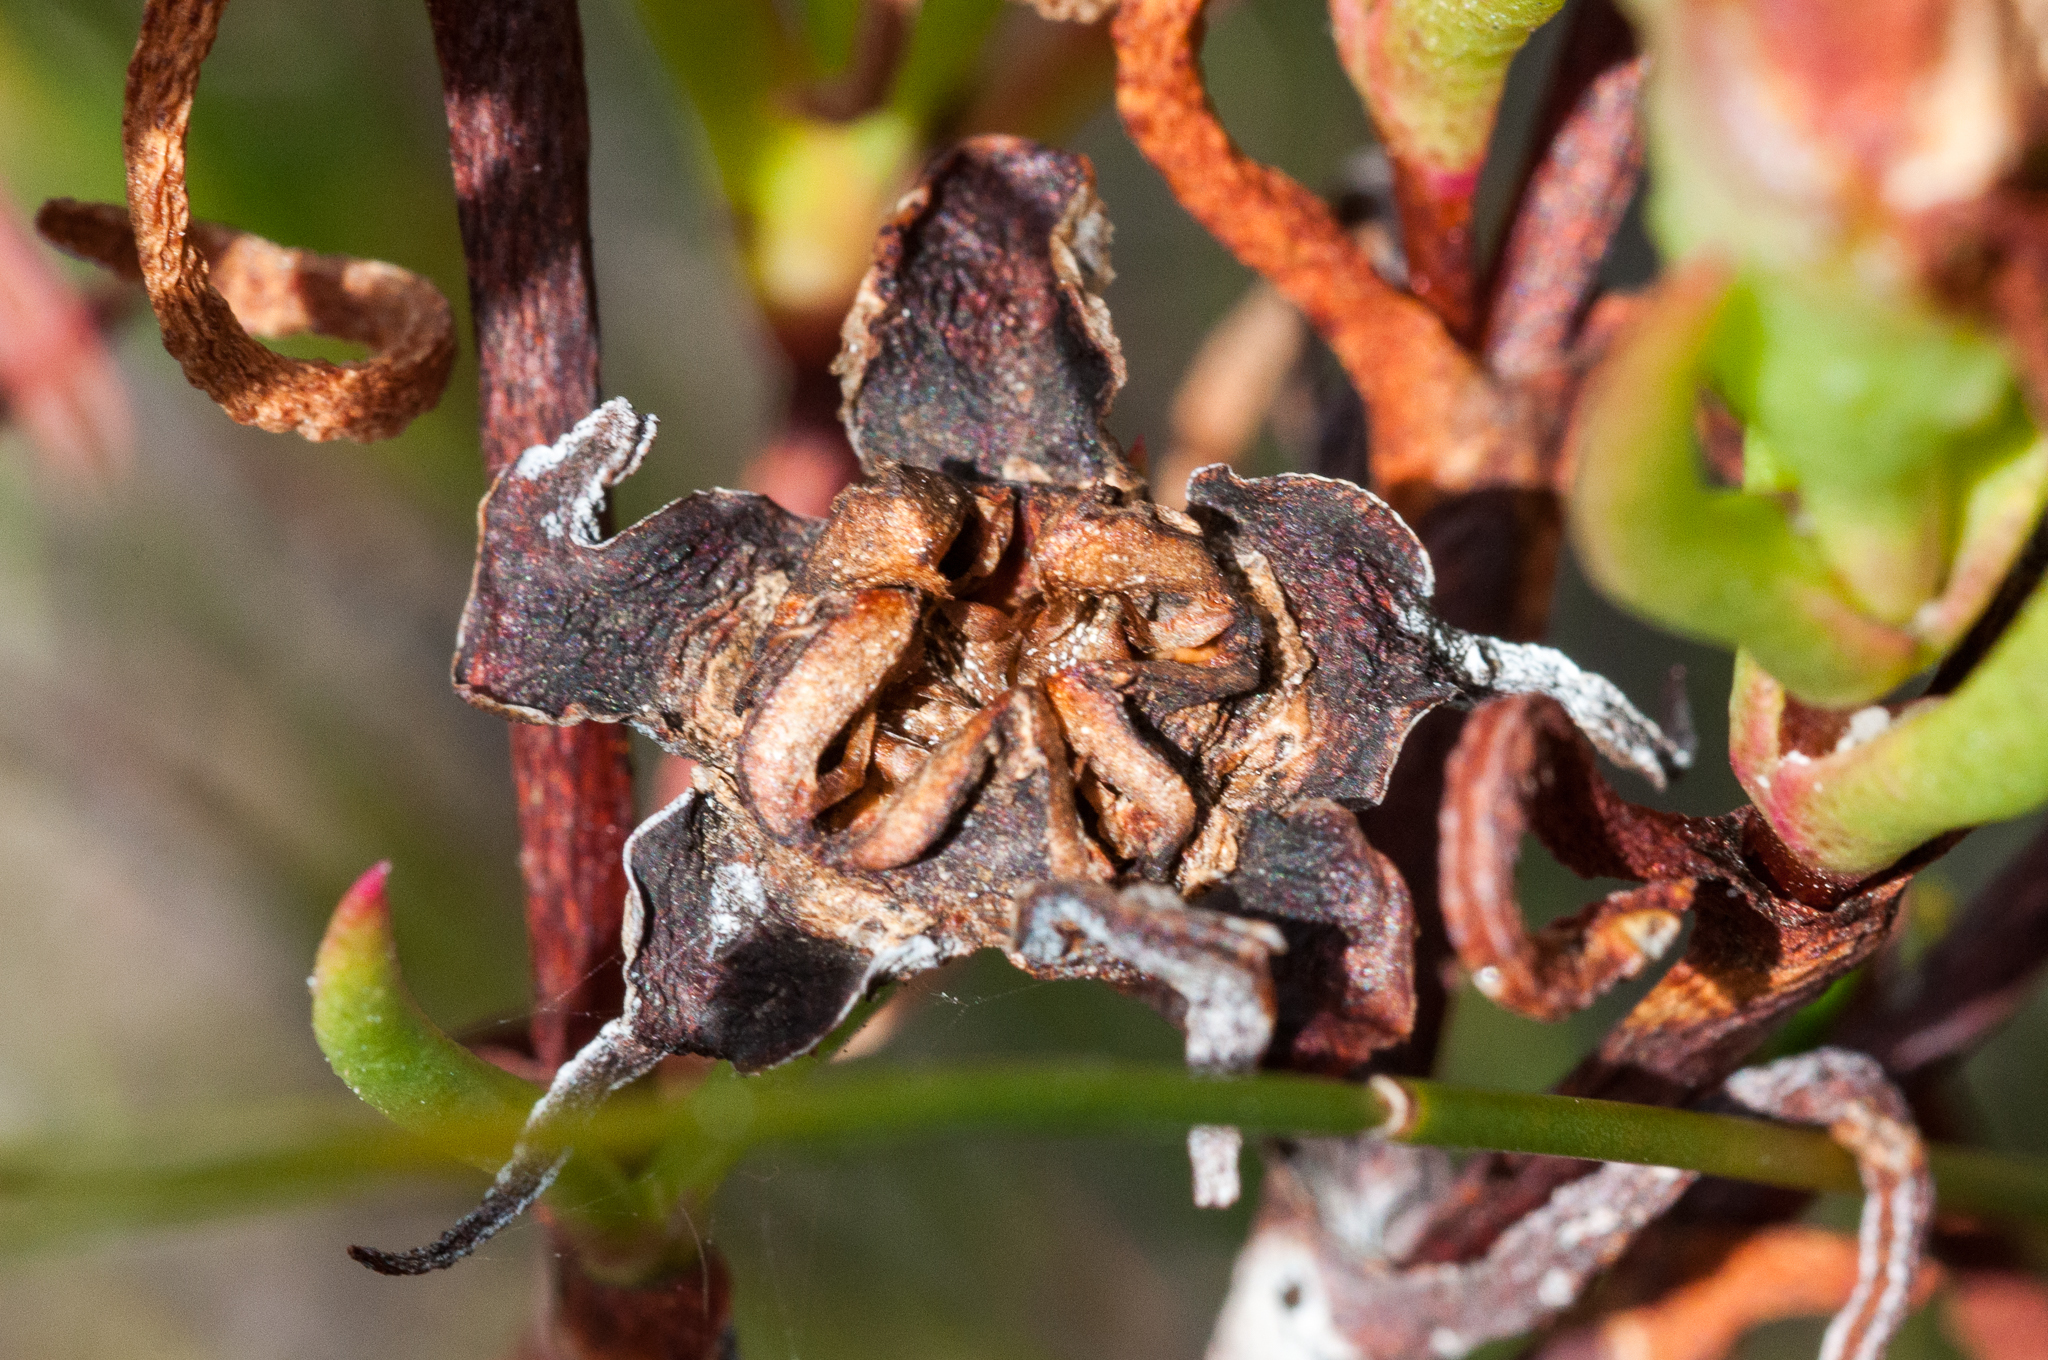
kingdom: Plantae
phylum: Tracheophyta
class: Magnoliopsida
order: Caryophyllales
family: Aizoaceae
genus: Lampranthus
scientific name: Lampranthus bicolor
